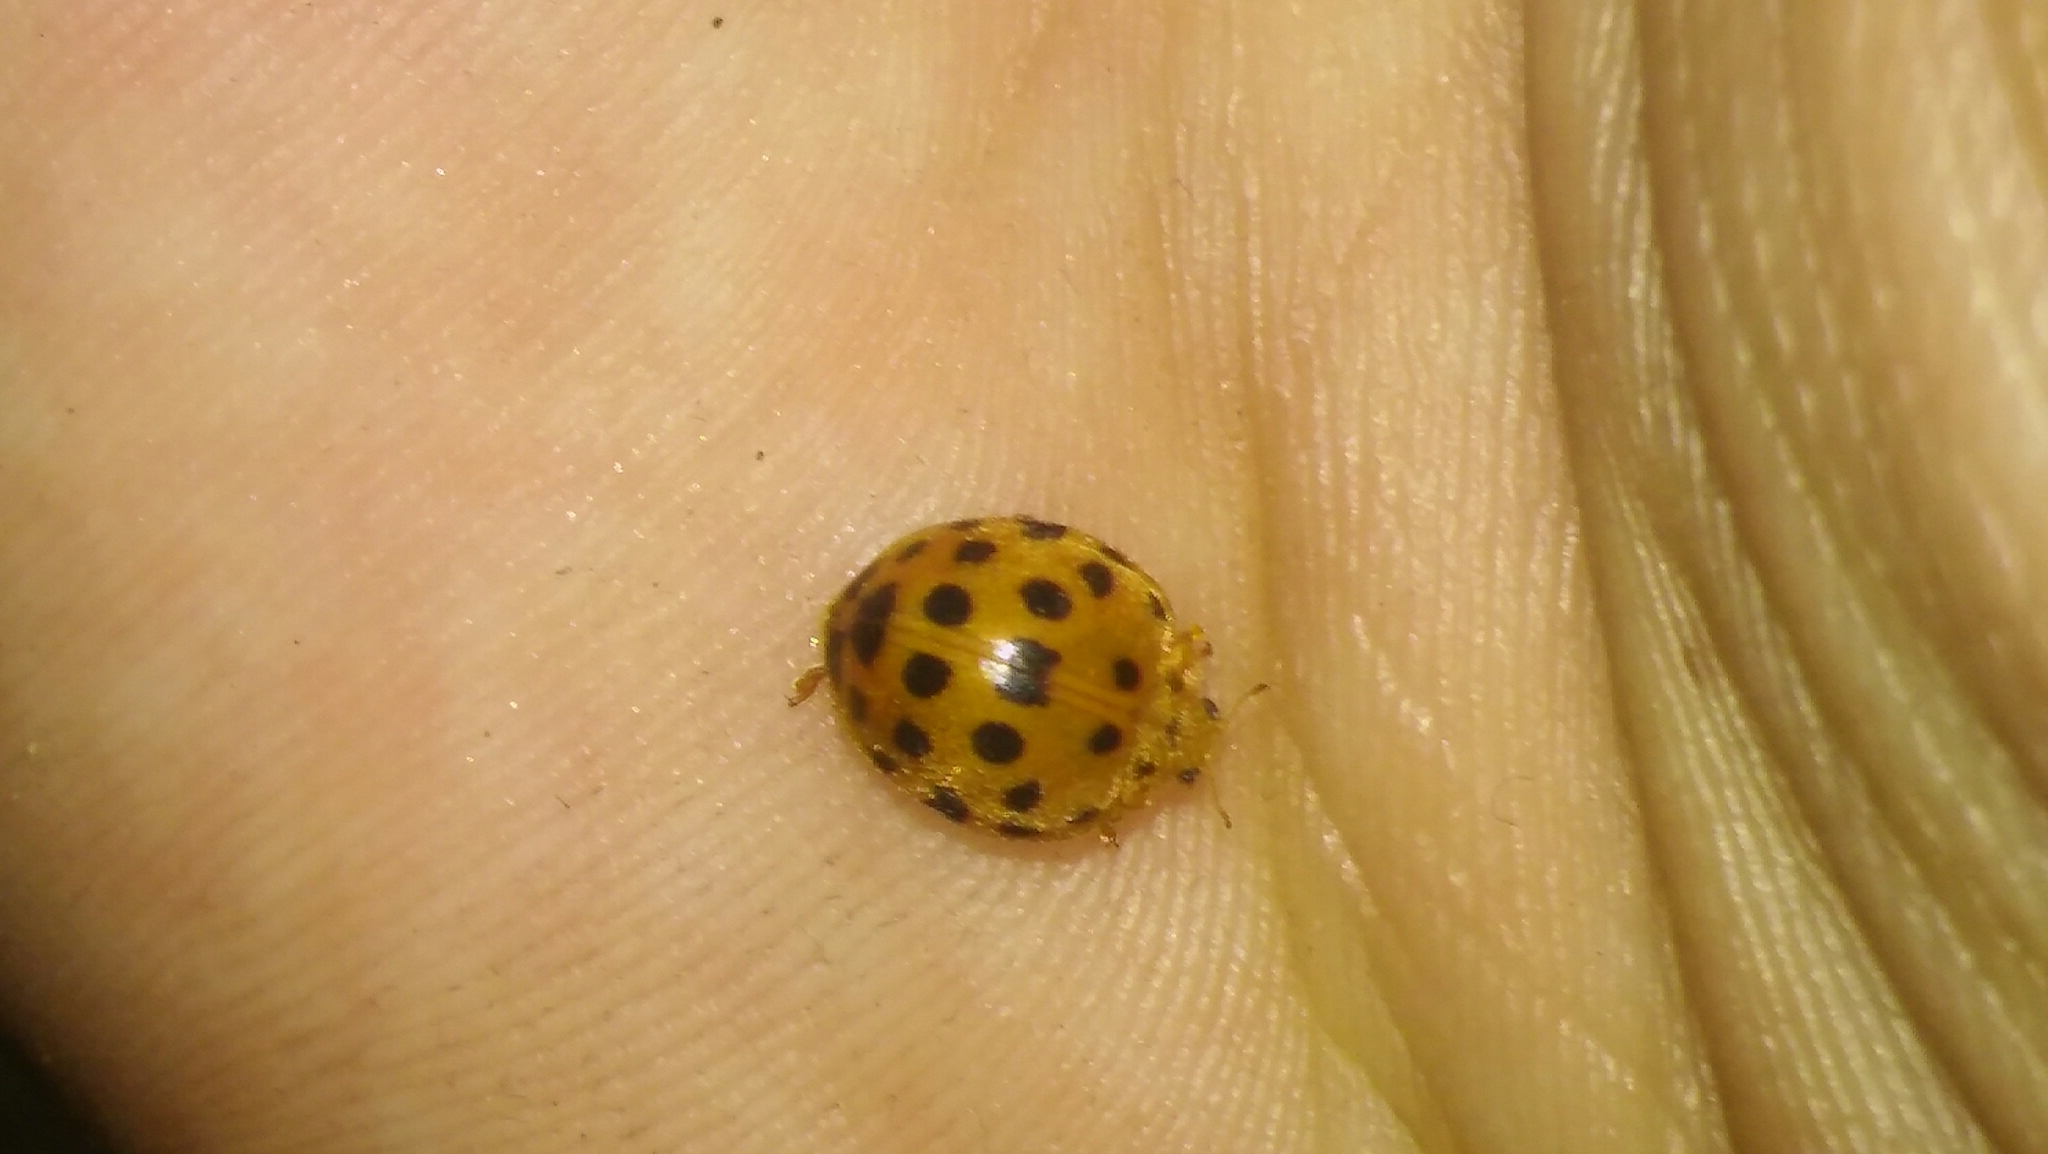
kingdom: Animalia
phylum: Arthropoda
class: Insecta
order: Coleoptera
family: Coccinellidae
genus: Henosepilachna
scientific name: Henosepilachna vigintioctopunctata
